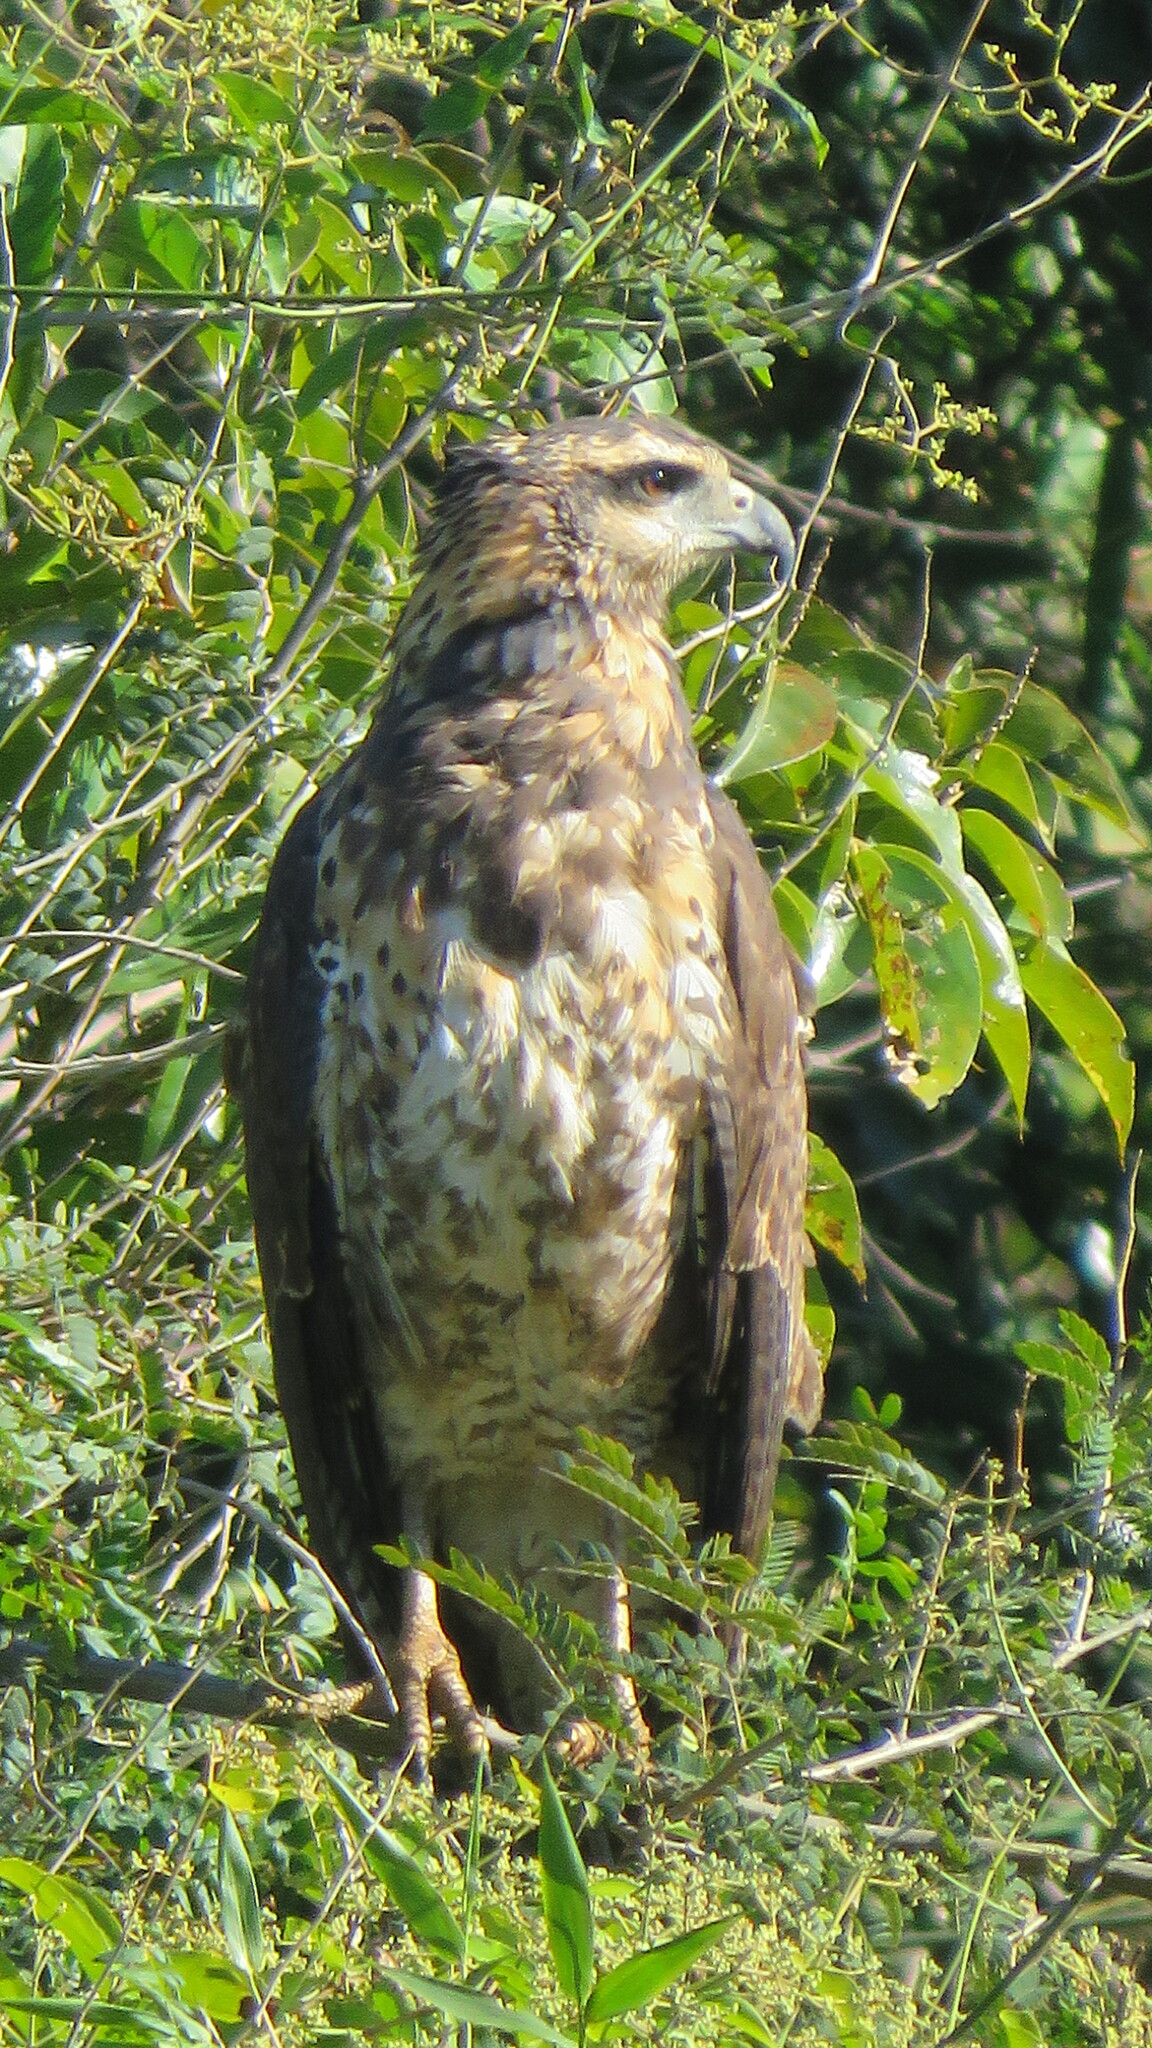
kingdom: Animalia
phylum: Chordata
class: Aves
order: Accipitriformes
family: Accipitridae
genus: Buteogallus
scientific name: Buteogallus urubitinga
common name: Great black hawk
